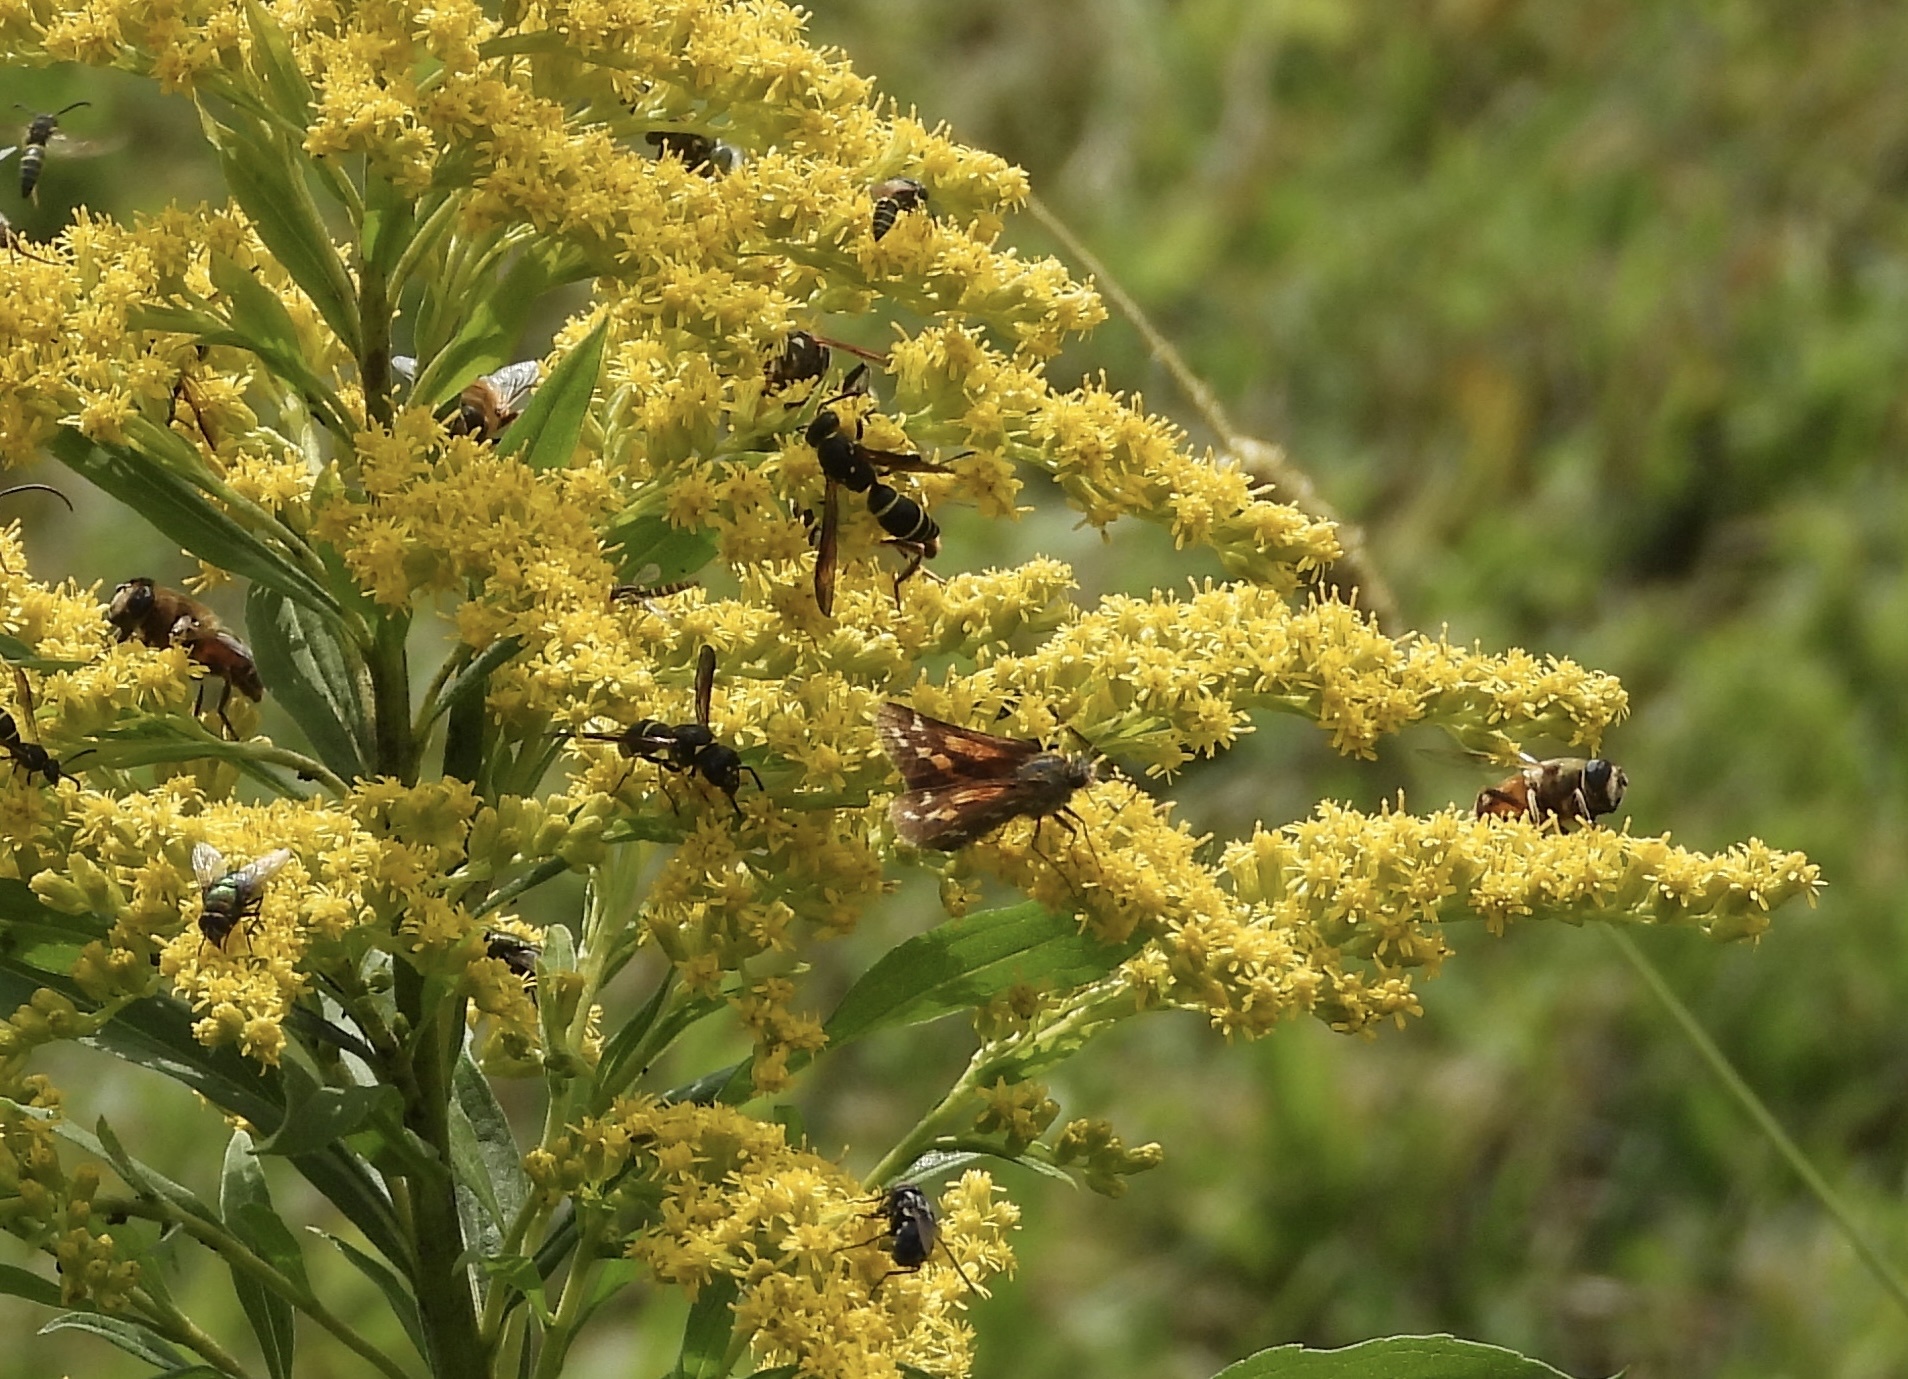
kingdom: Animalia
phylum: Arthropoda
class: Insecta
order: Lepidoptera
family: Hesperiidae
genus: Hesperia
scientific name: Hesperia comma
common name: Common branded skipper
